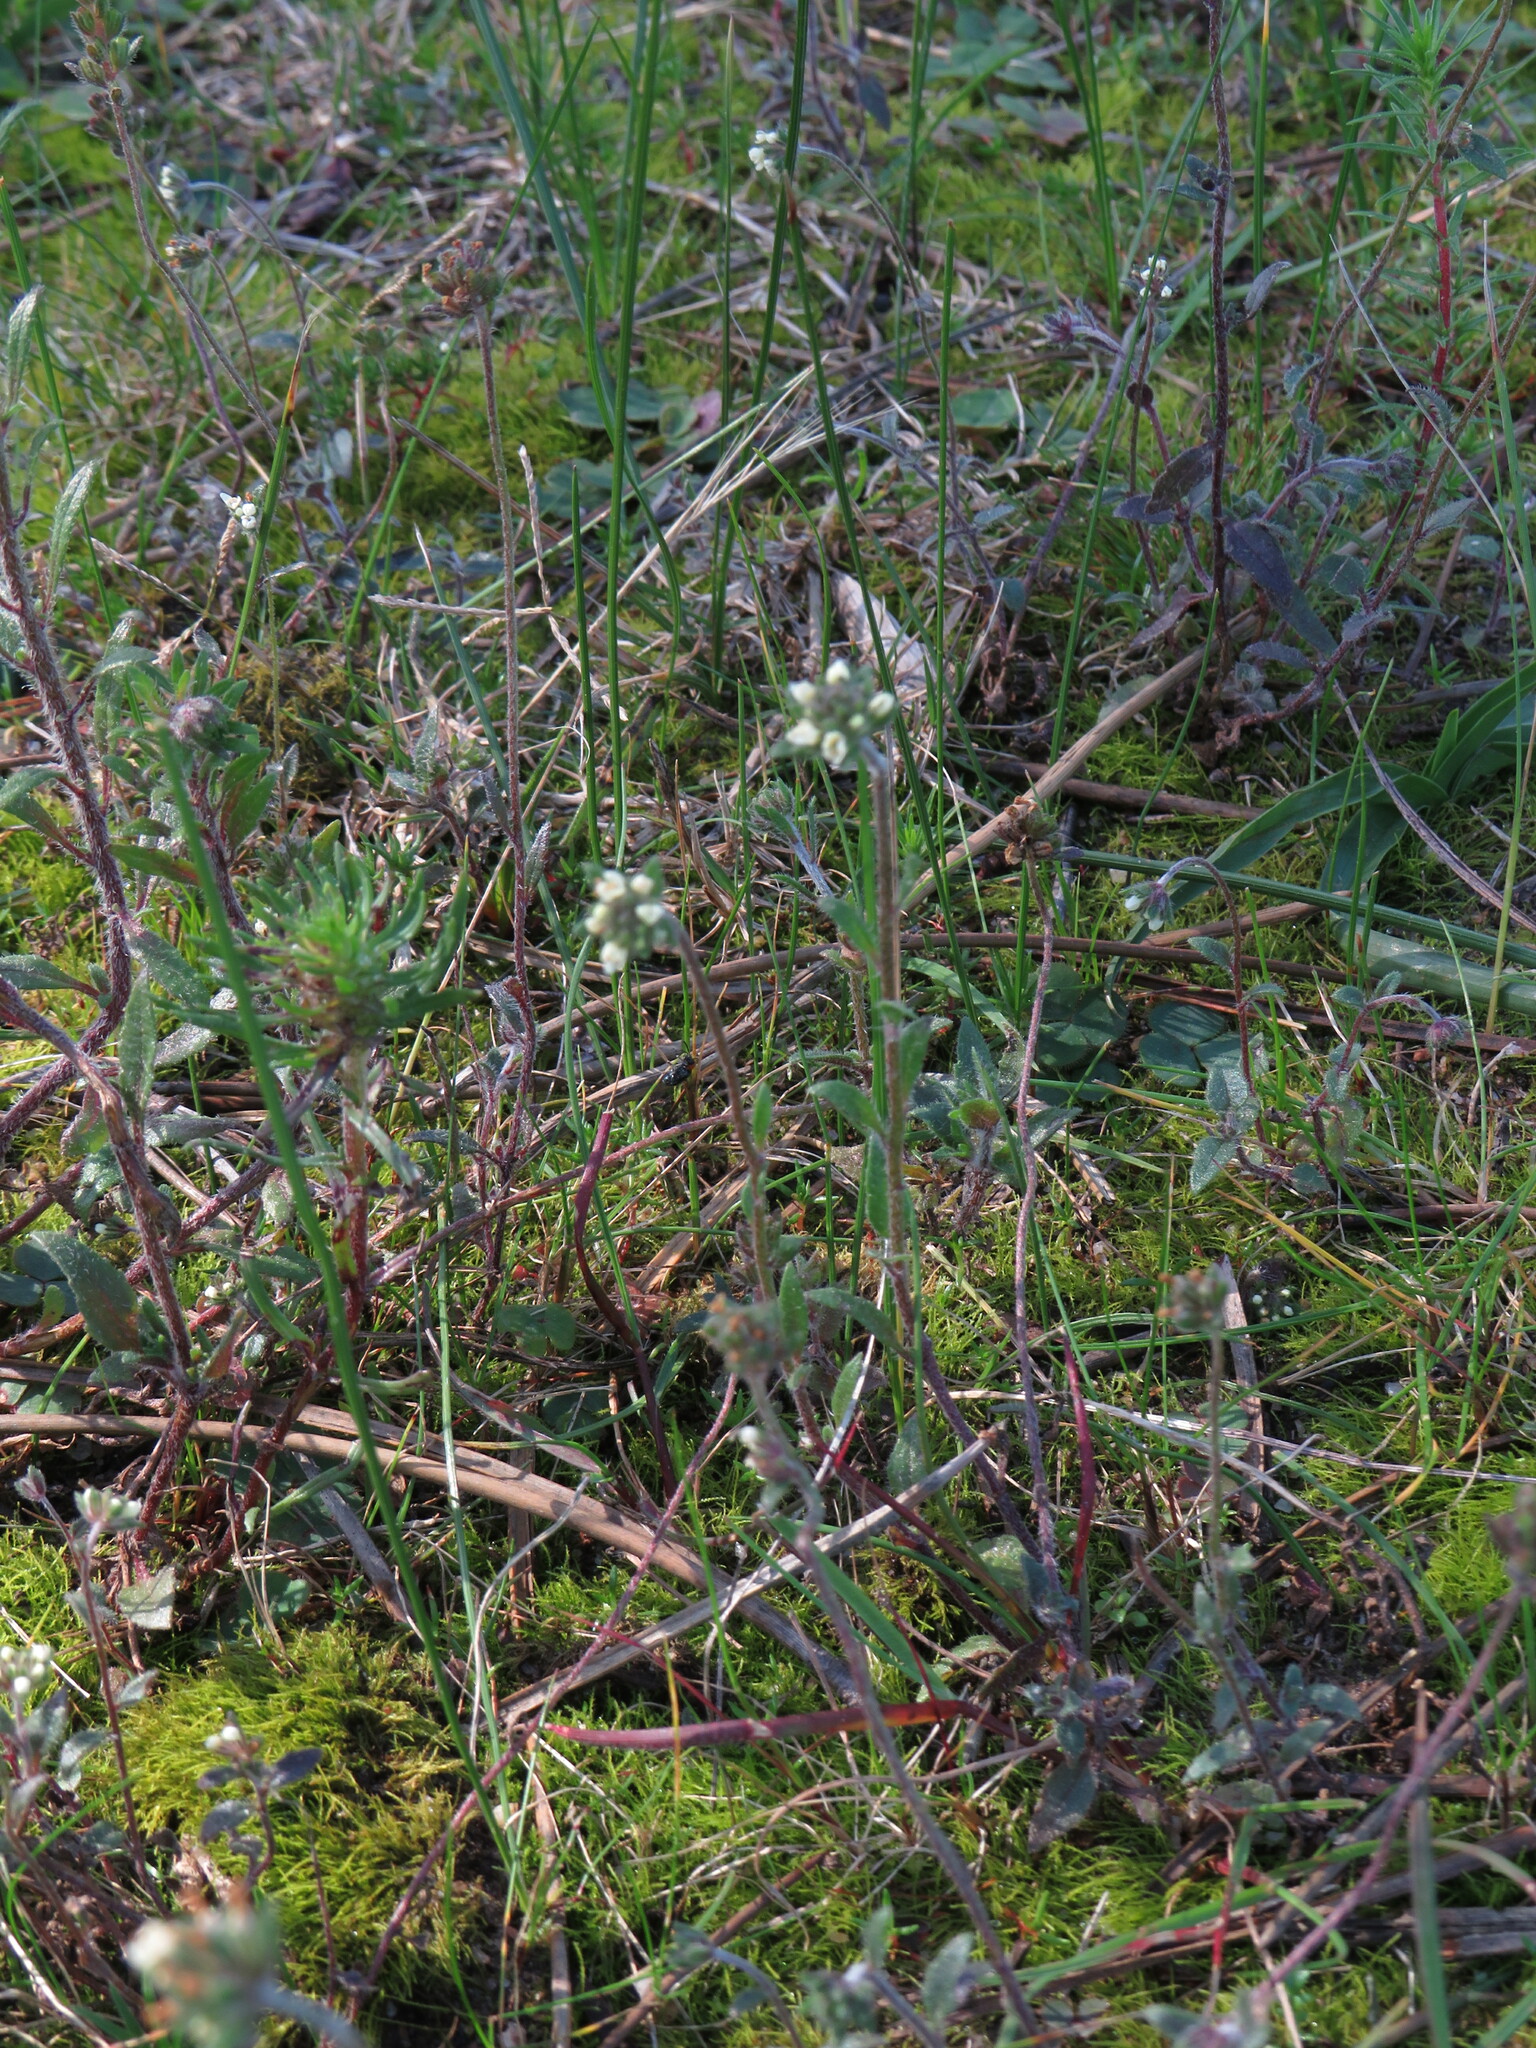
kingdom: Plantae
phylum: Tracheophyta
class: Magnoliopsida
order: Lamiales
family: Scrophulariaceae
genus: Phyllopodium
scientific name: Phyllopodium capillare
